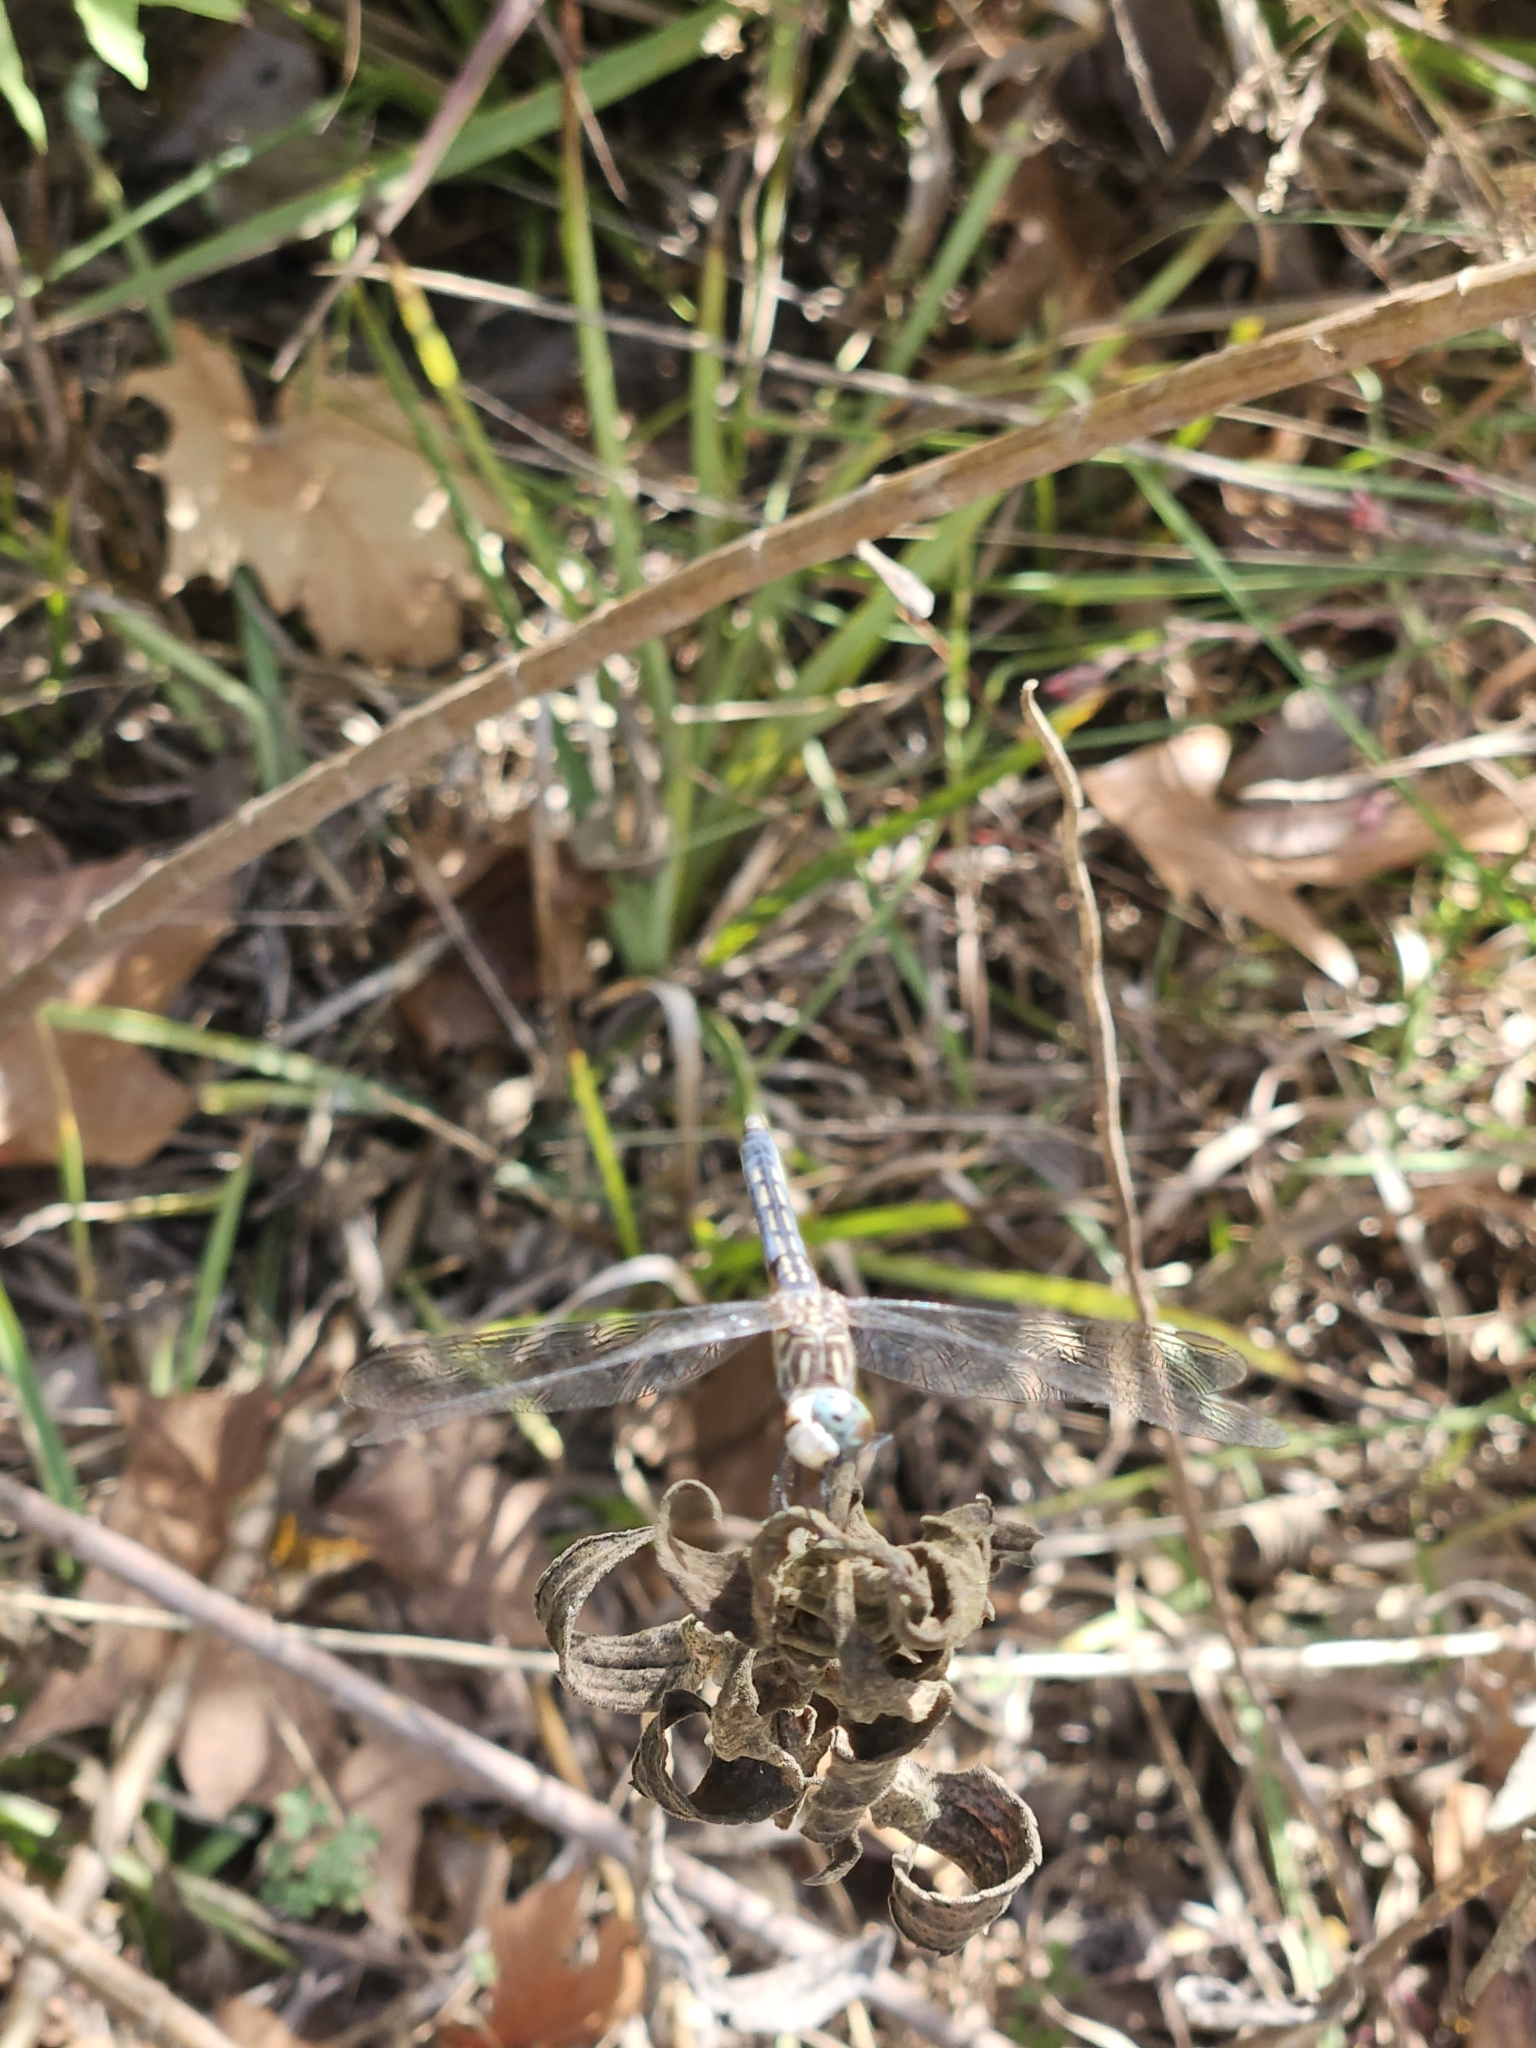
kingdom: Animalia
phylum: Arthropoda
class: Insecta
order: Odonata
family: Libellulidae
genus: Pachydiplax
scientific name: Pachydiplax longipennis
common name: Blue dasher
